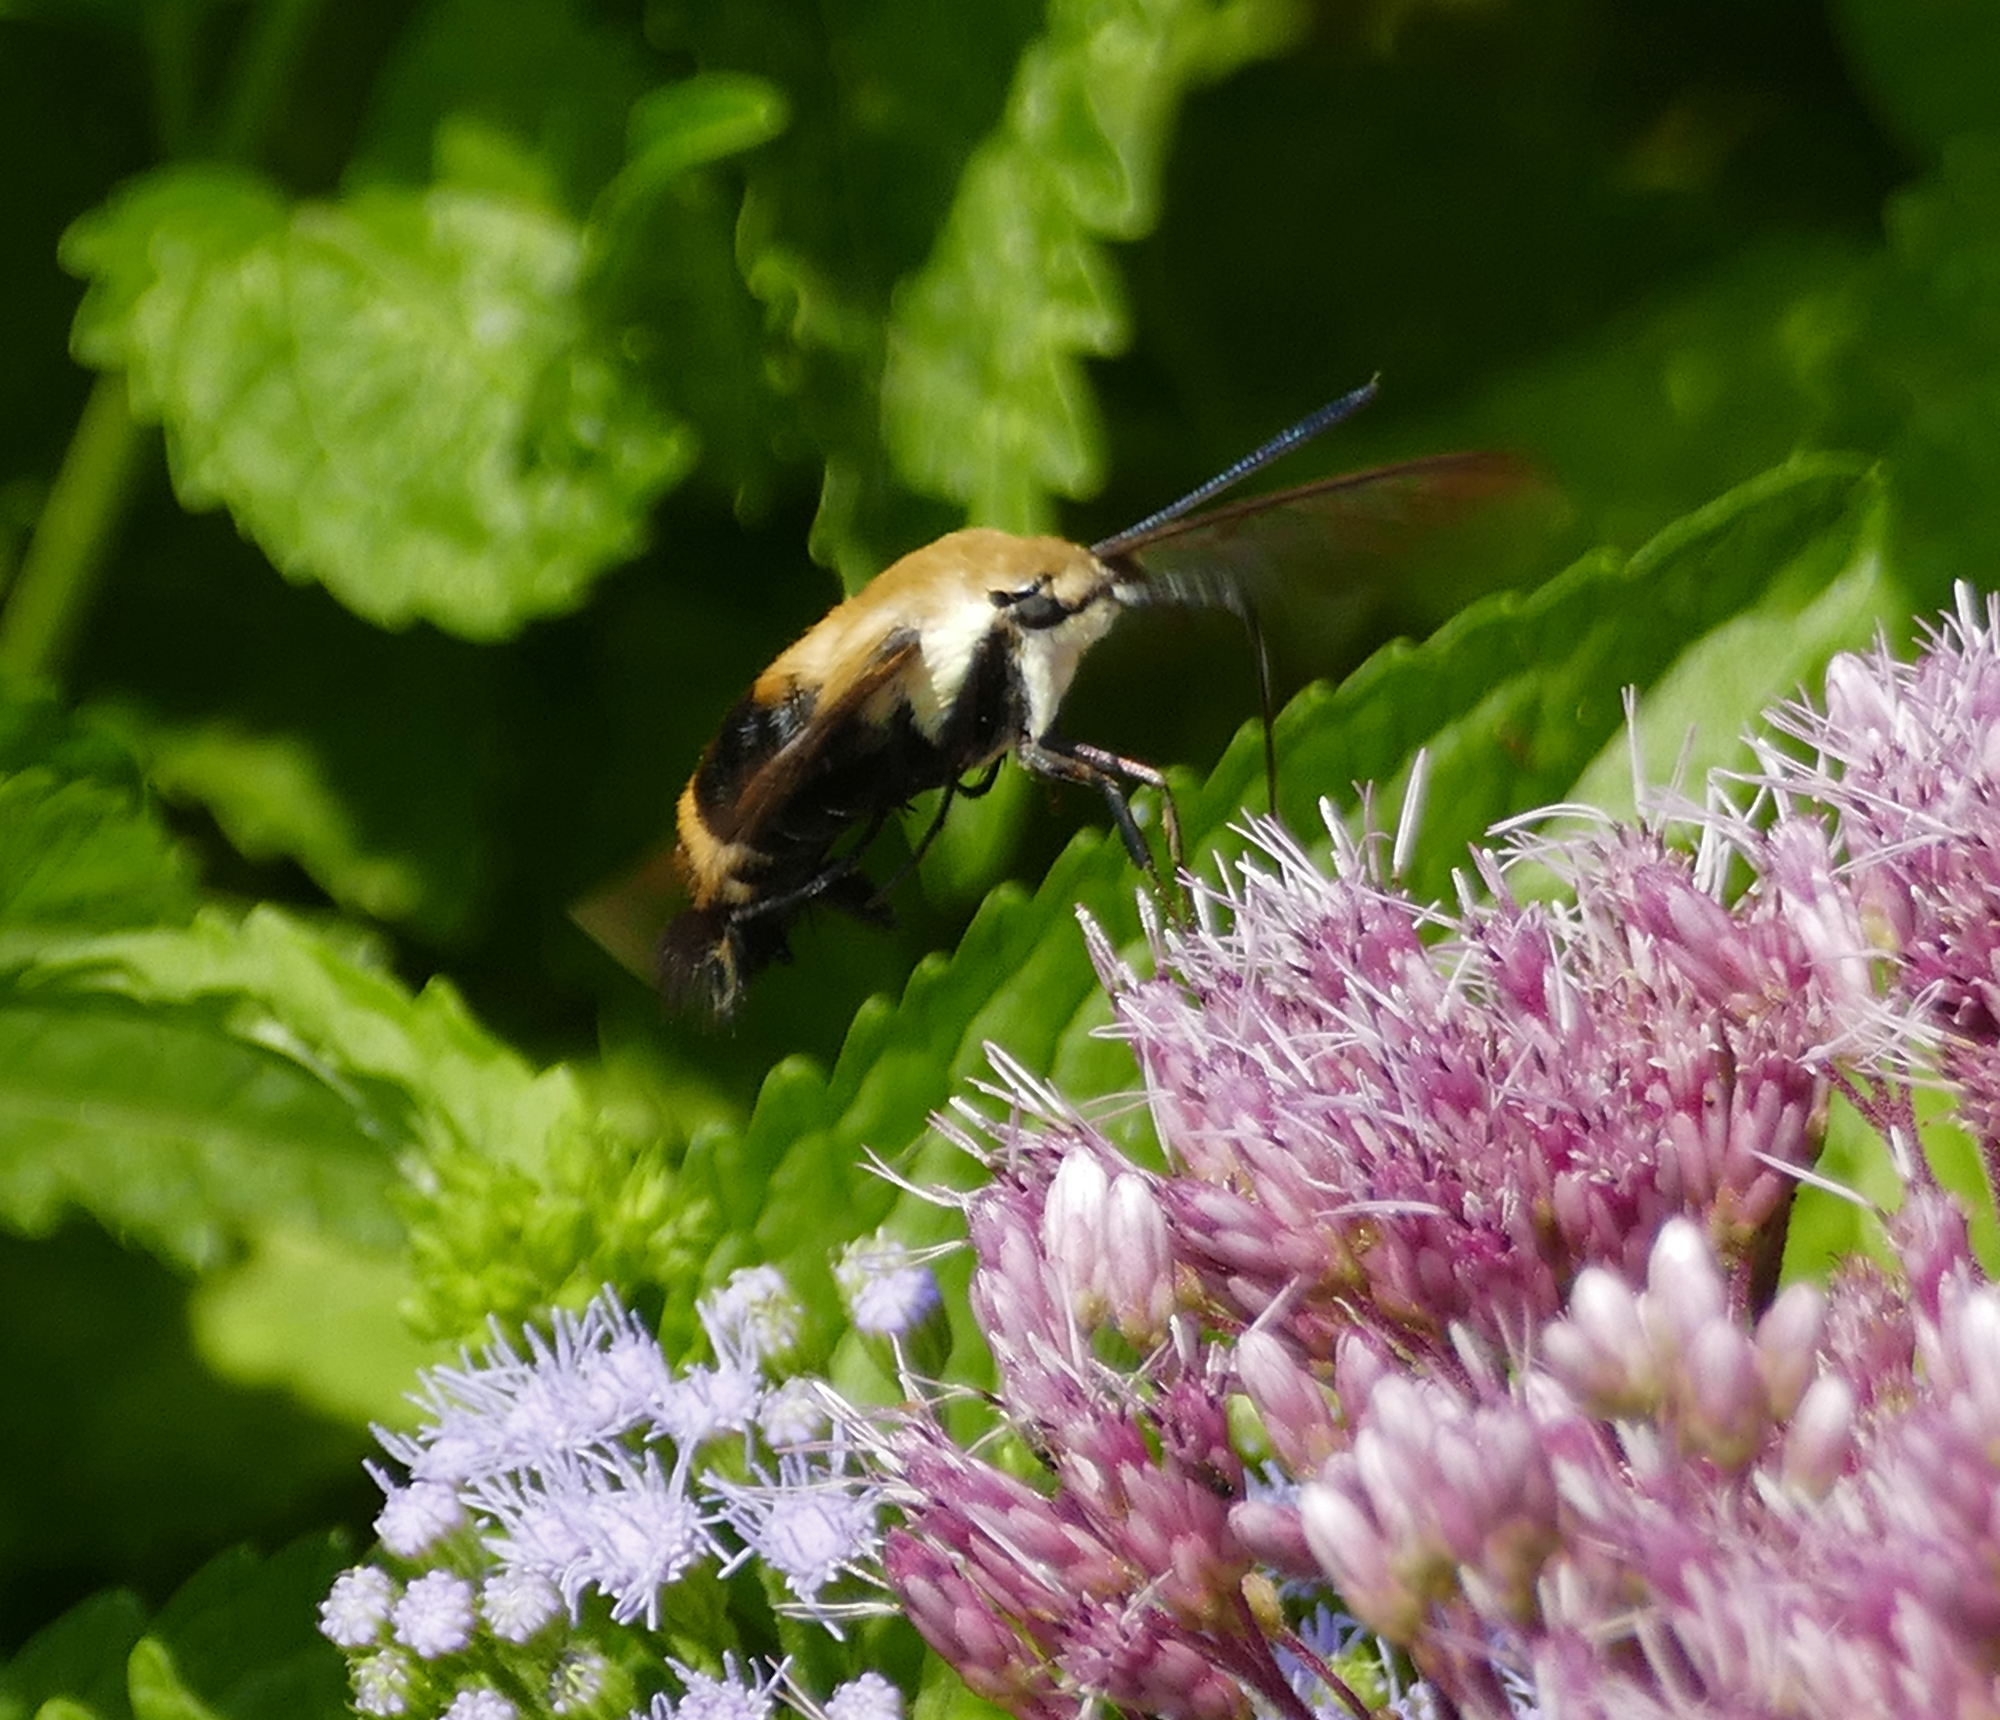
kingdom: Animalia
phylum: Arthropoda
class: Insecta
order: Lepidoptera
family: Sphingidae
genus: Hemaris
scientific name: Hemaris diffinis
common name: Bumblebee moth
